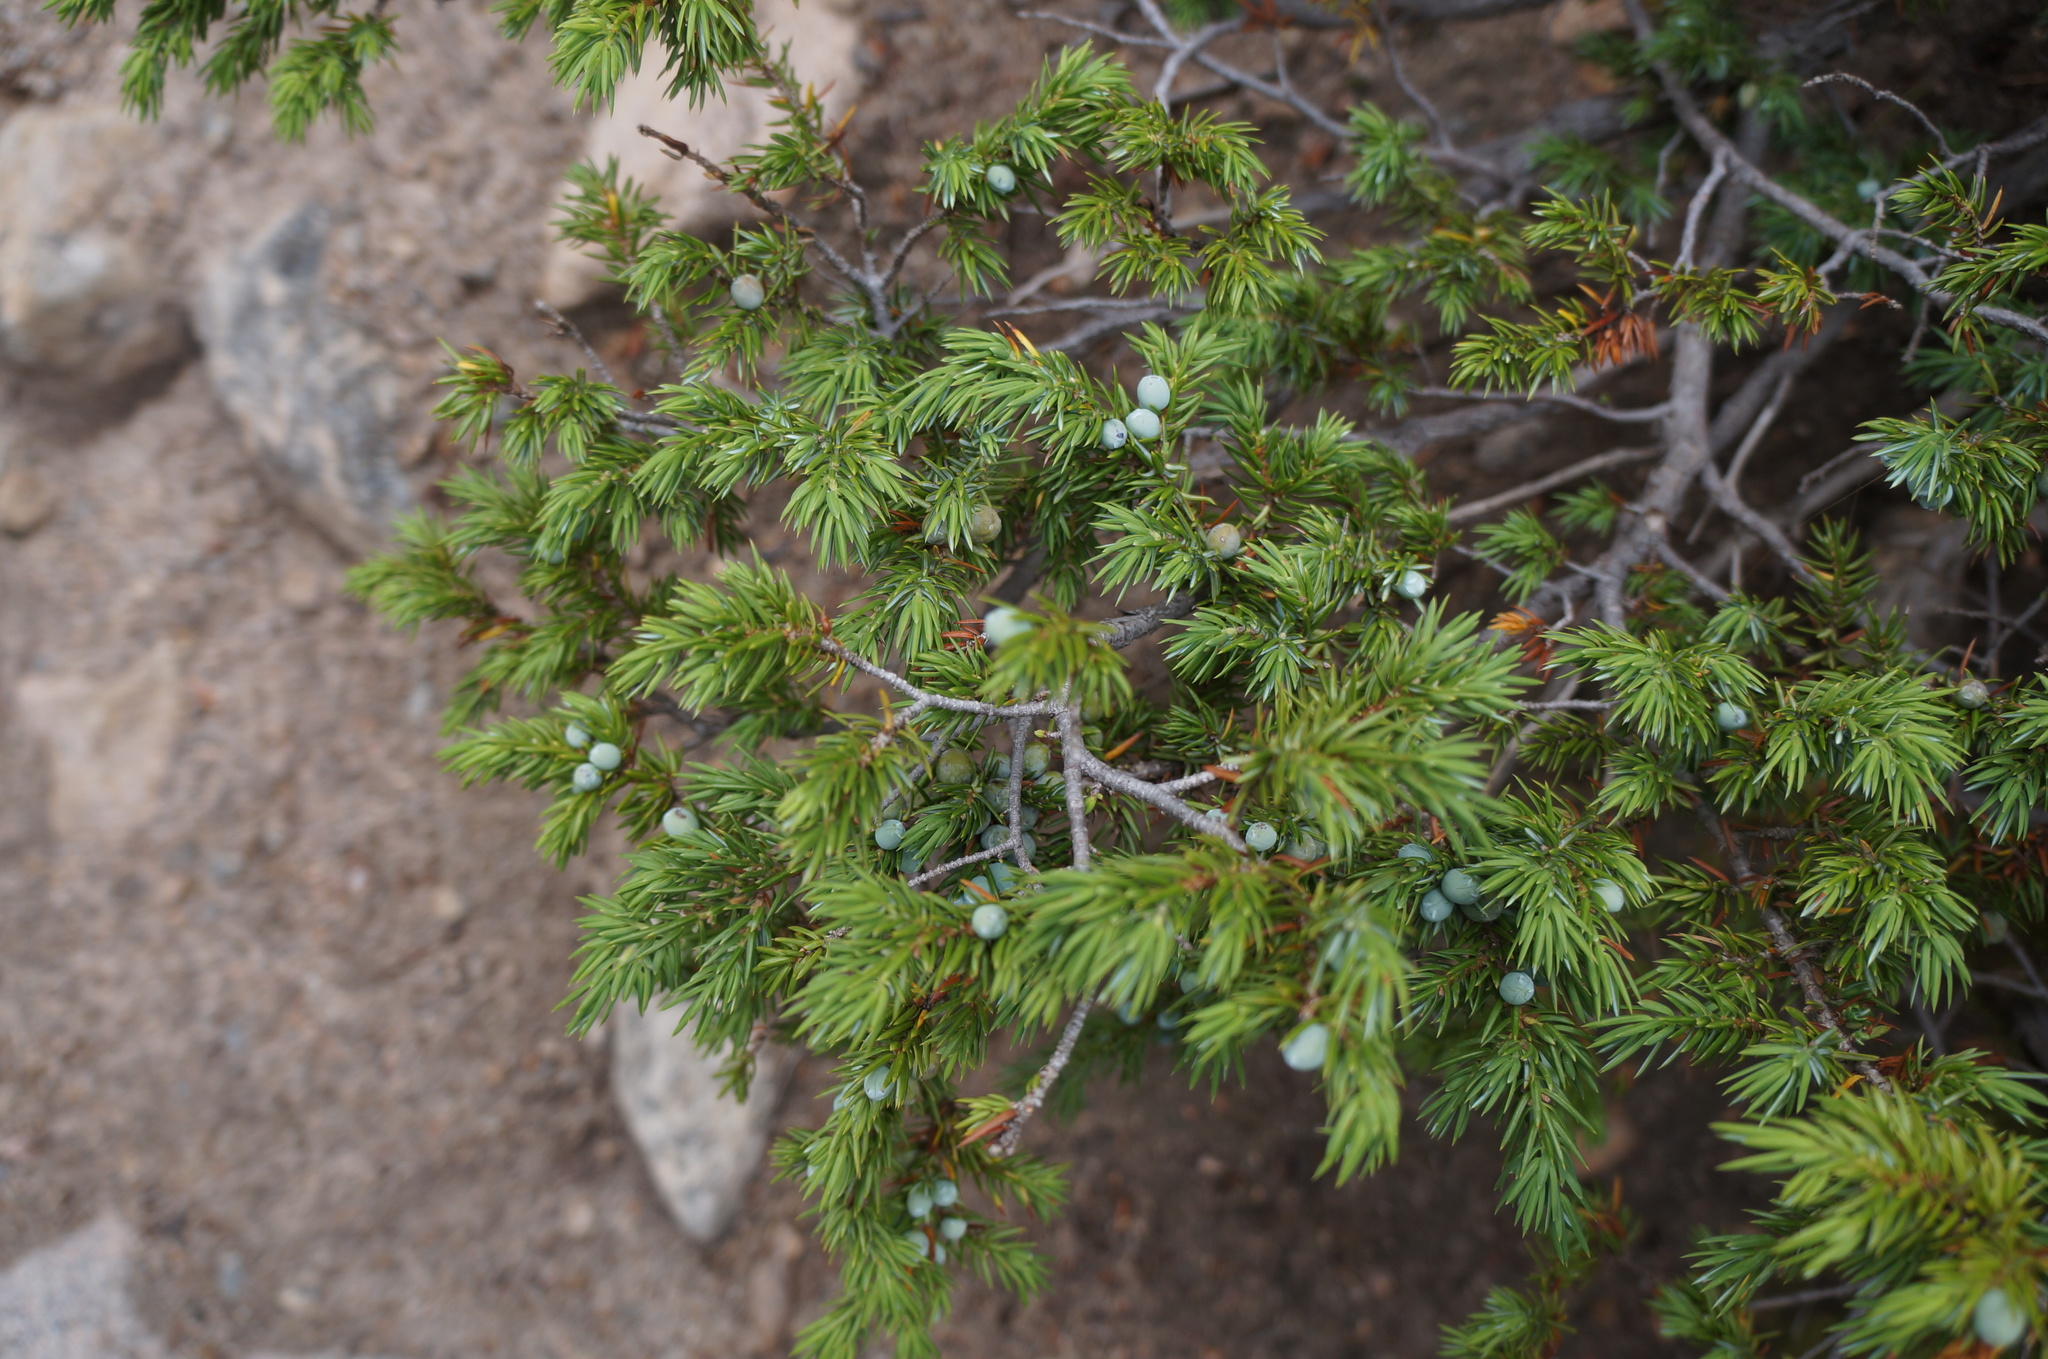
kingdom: Plantae
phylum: Tracheophyta
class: Pinopsida
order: Pinales
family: Cupressaceae
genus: Juniperus
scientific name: Juniperus communis
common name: Common juniper
